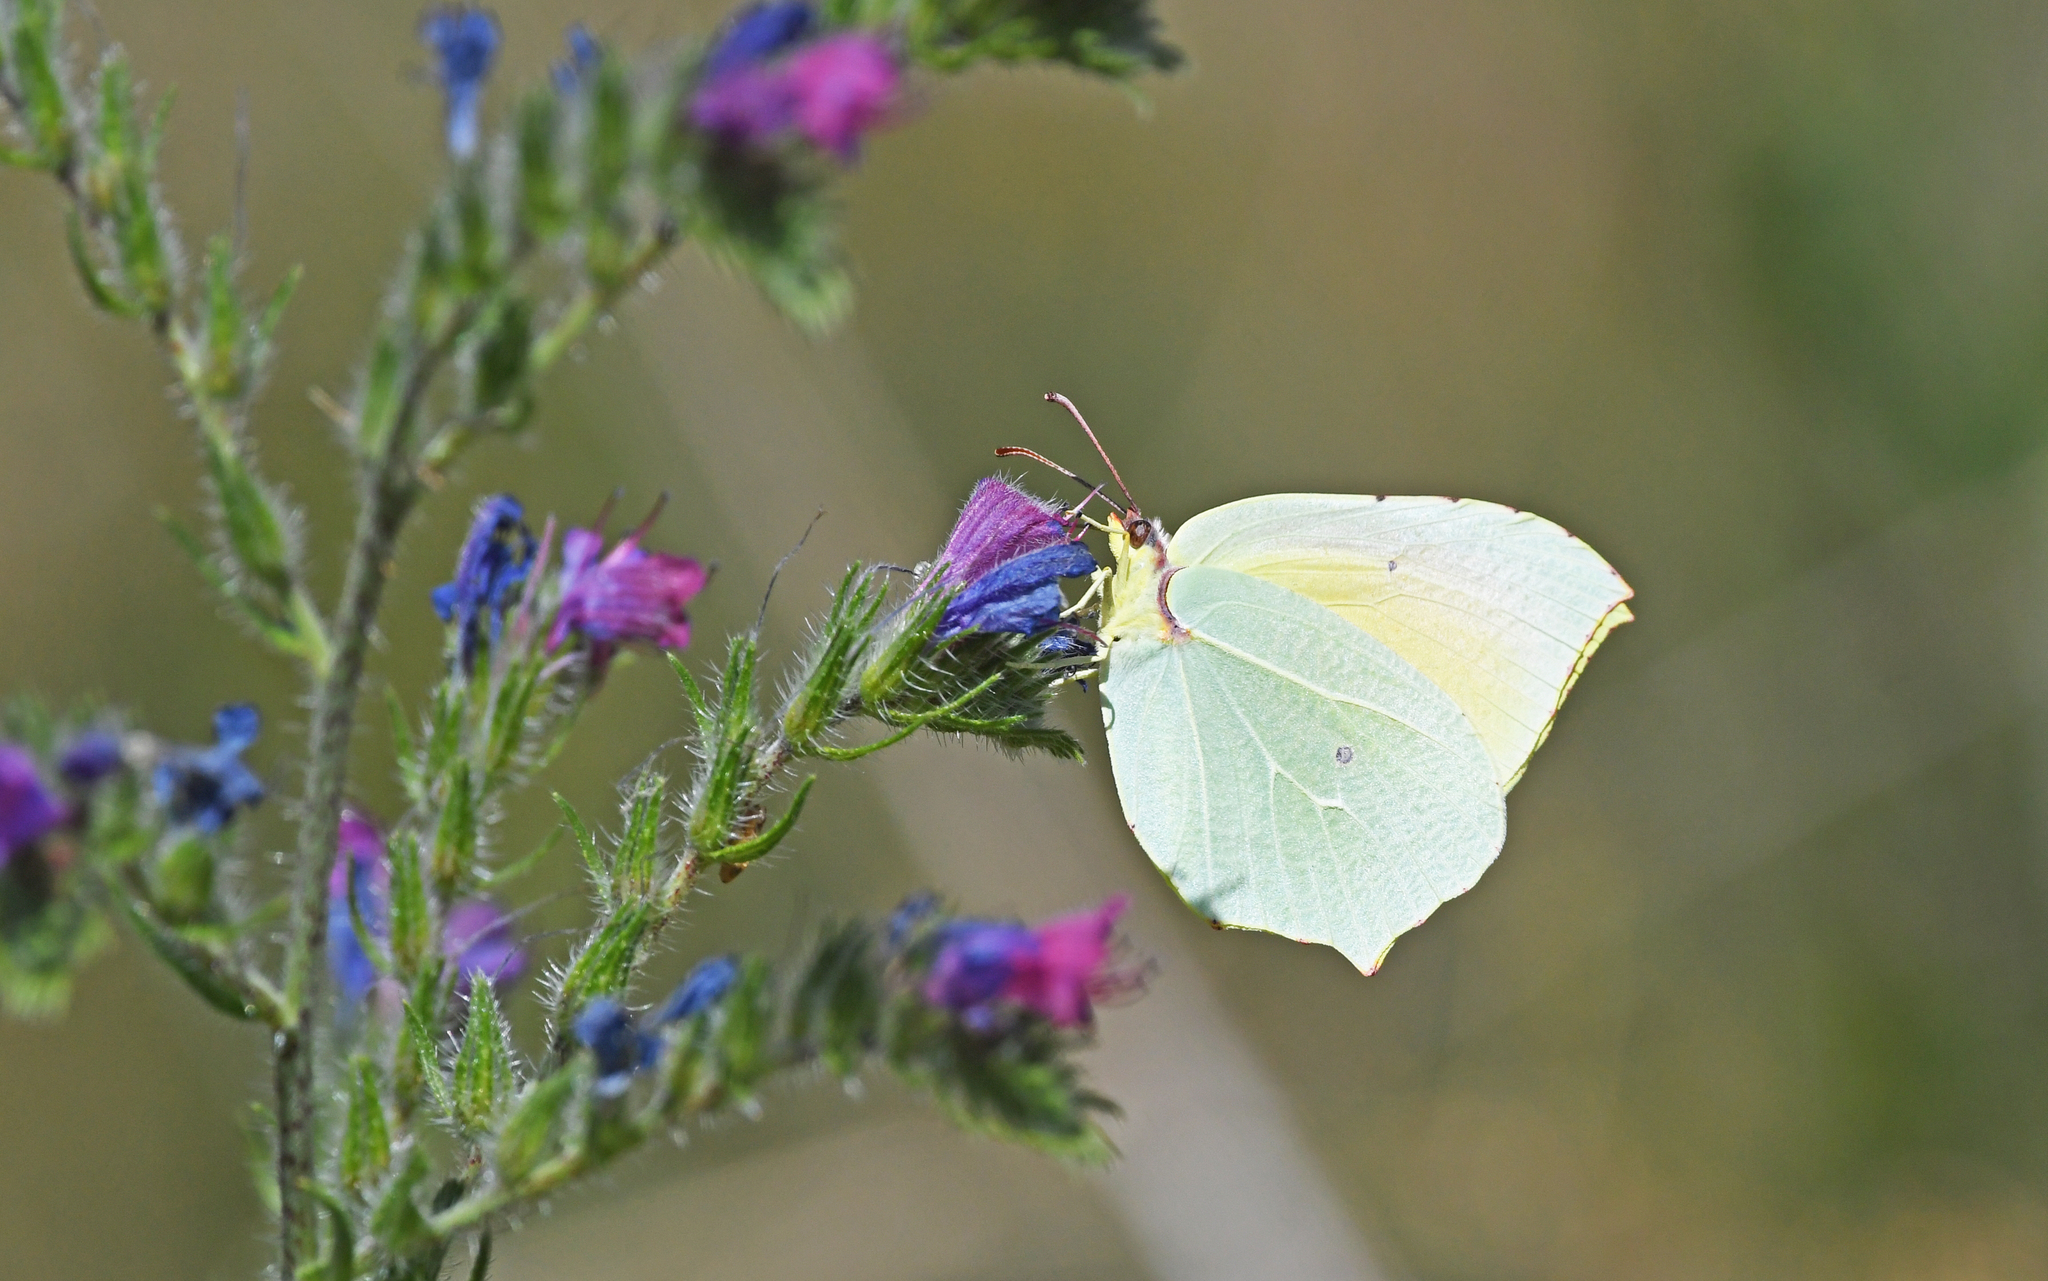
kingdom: Animalia
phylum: Arthropoda
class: Insecta
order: Lepidoptera
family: Pieridae
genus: Gonepteryx
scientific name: Gonepteryx cleopatra
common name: Cleopatra
